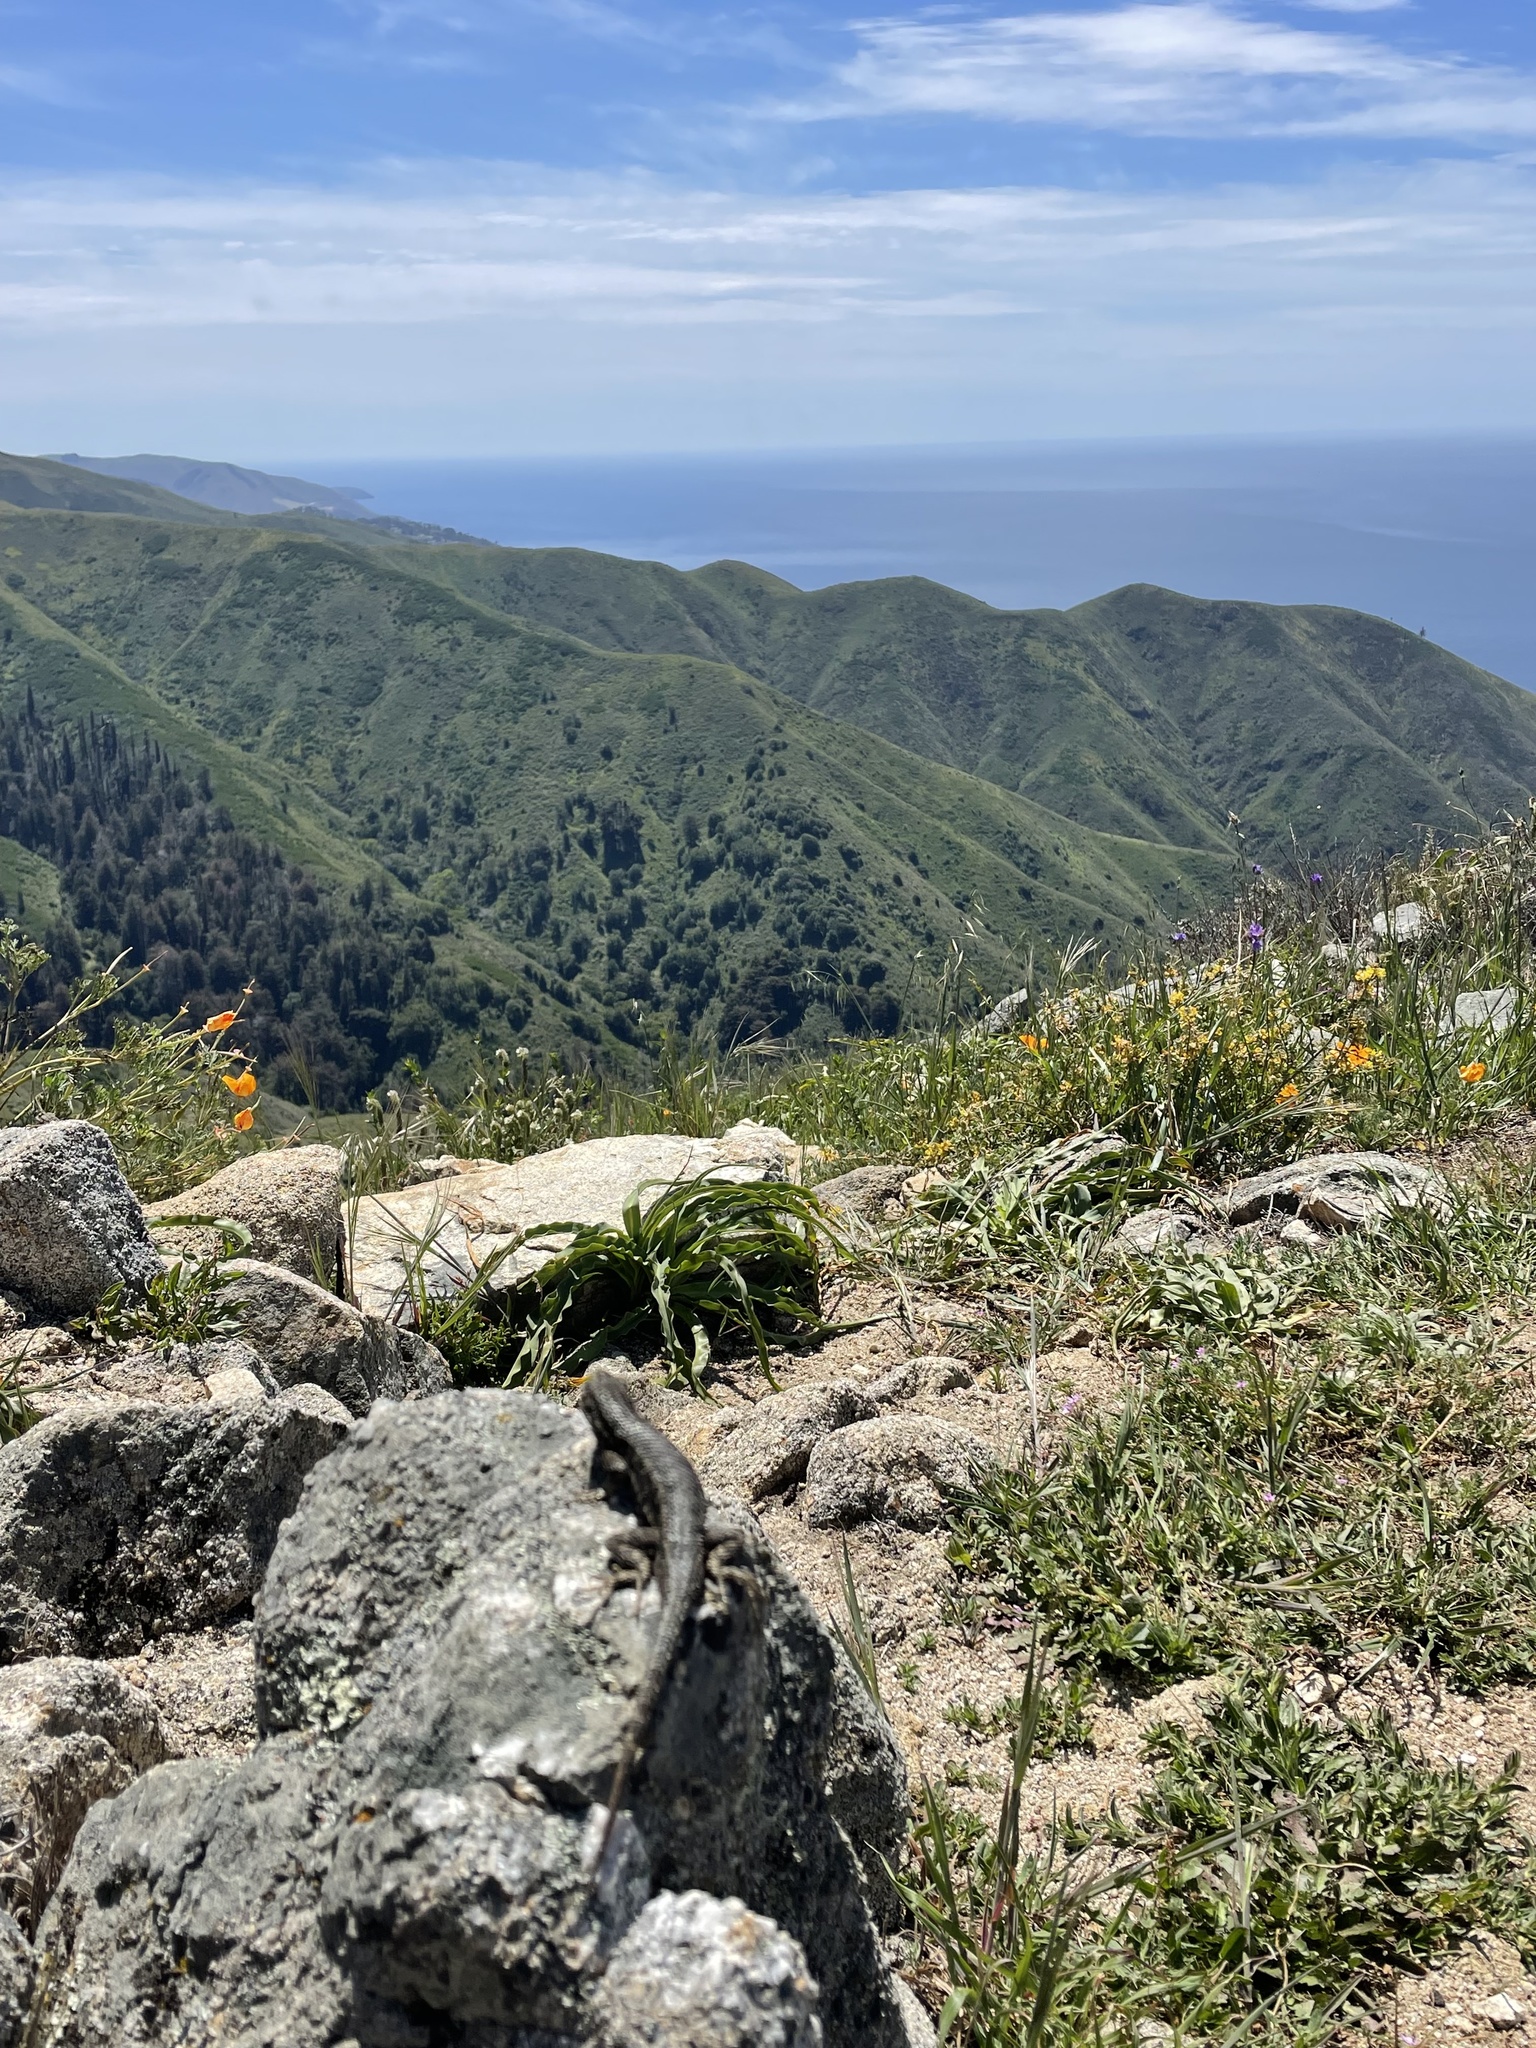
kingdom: Animalia
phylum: Chordata
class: Squamata
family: Phrynosomatidae
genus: Sceloporus
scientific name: Sceloporus occidentalis
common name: Western fence lizard
